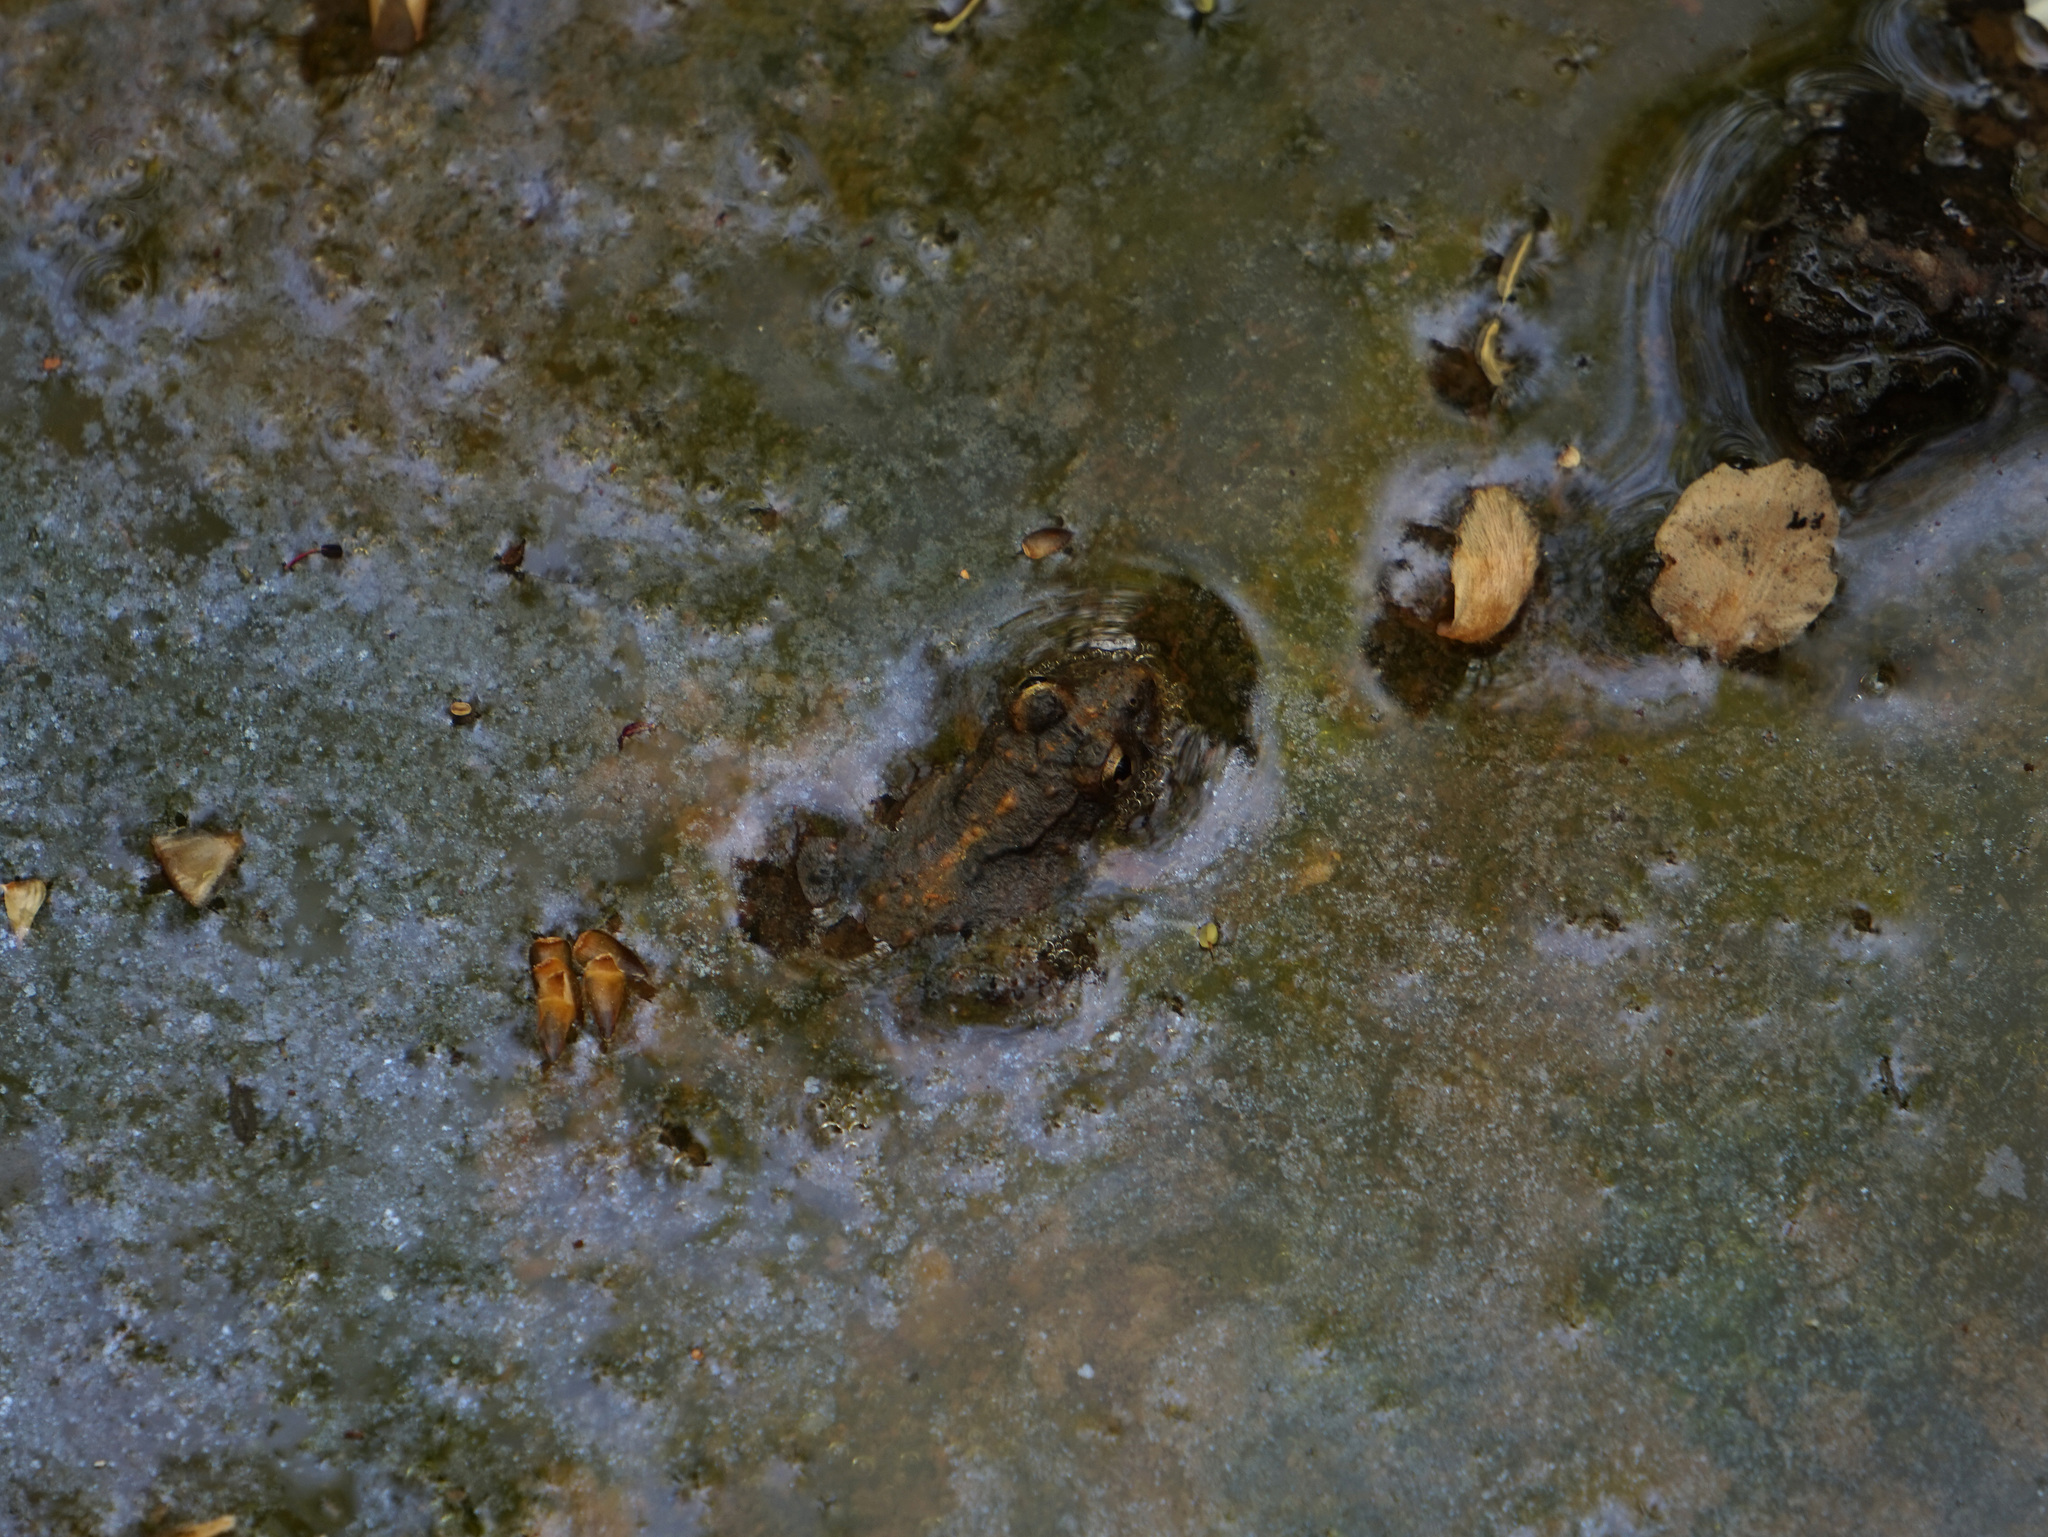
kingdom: Animalia
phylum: Chordata
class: Amphibia
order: Anura
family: Hylidae
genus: Acris
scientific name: Acris crepitans
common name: Northern cricket frog
